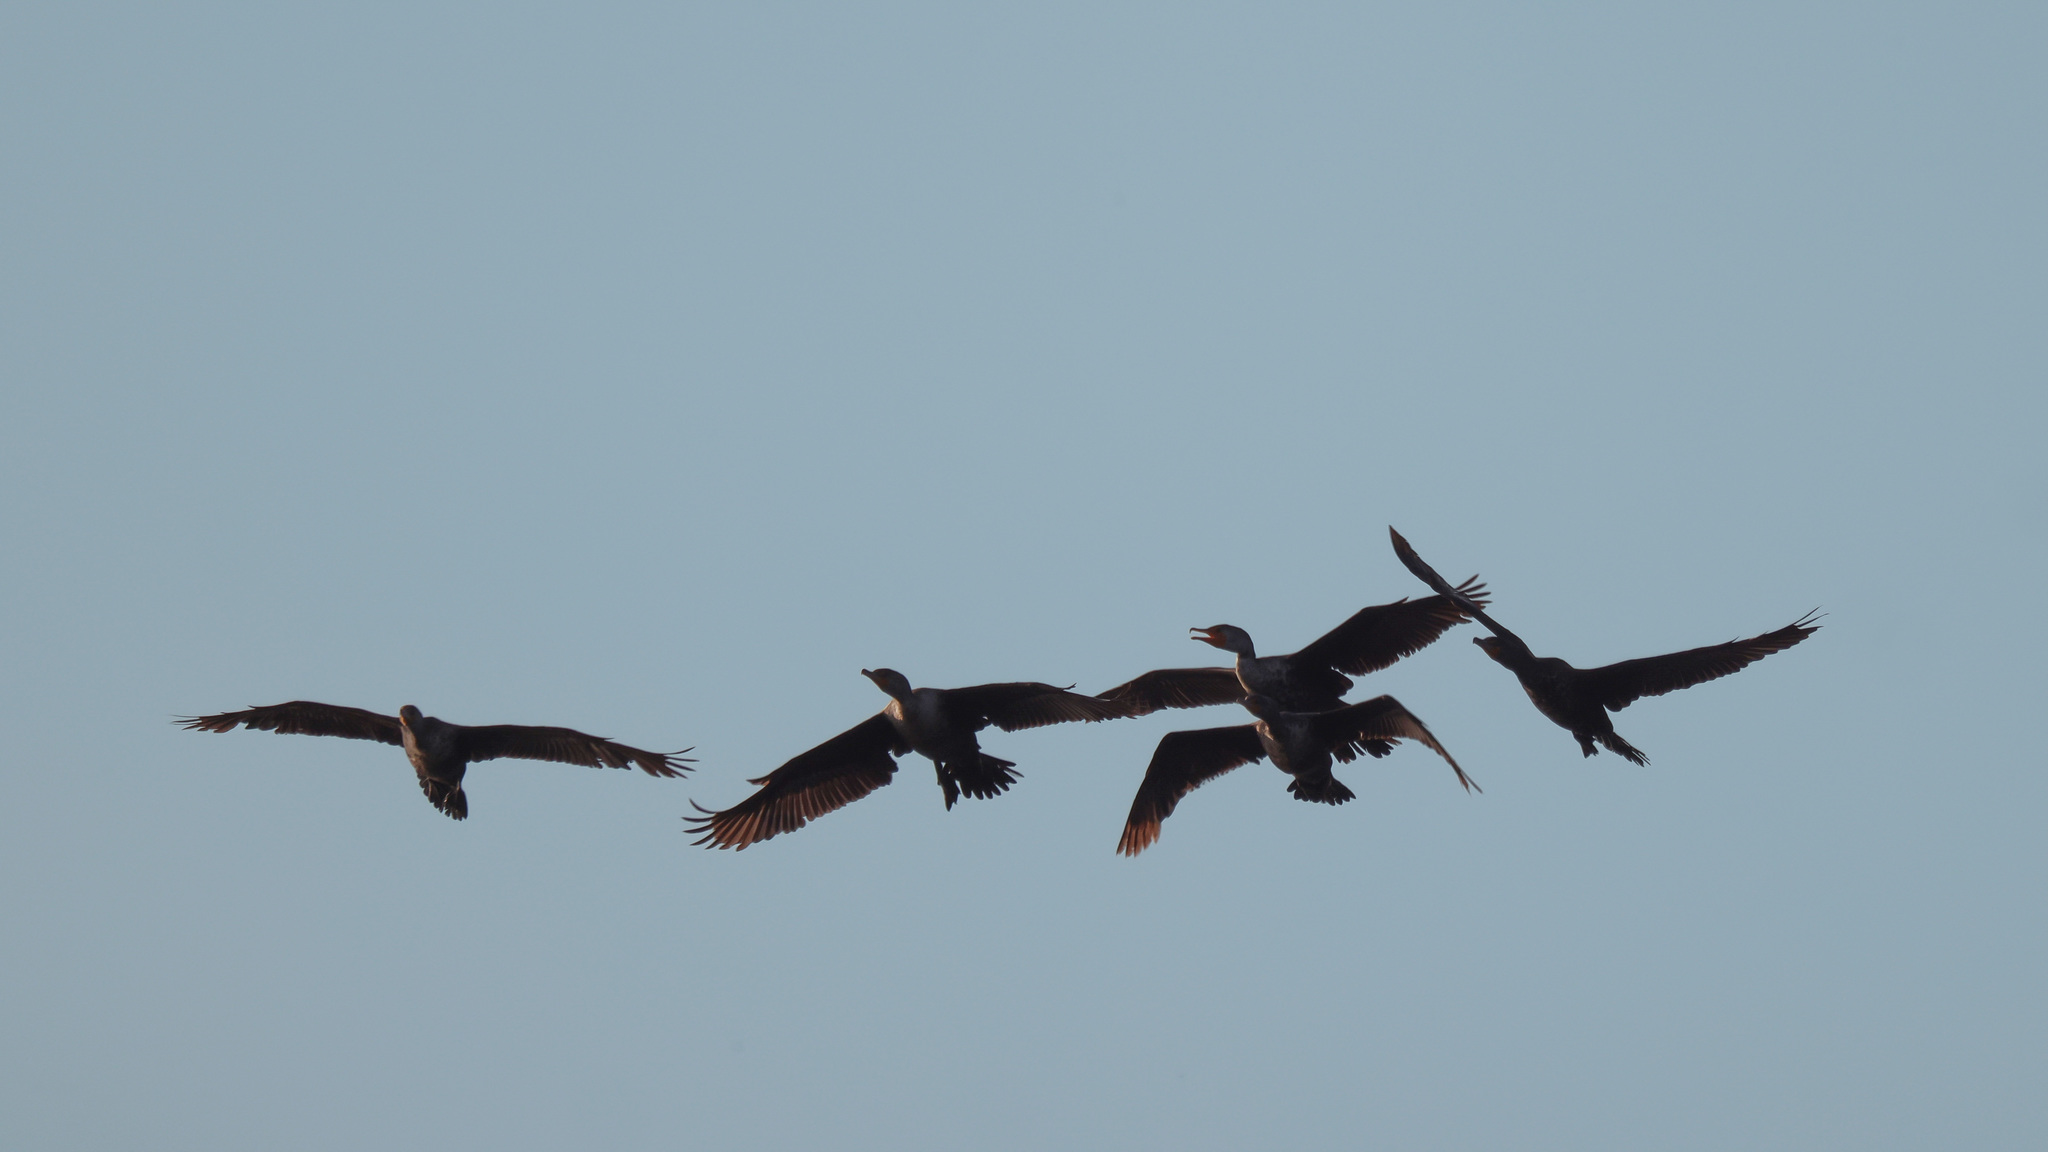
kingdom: Animalia
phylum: Chordata
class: Aves
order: Suliformes
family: Phalacrocoracidae
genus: Phalacrocorax
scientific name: Phalacrocorax auritus
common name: Double-crested cormorant
